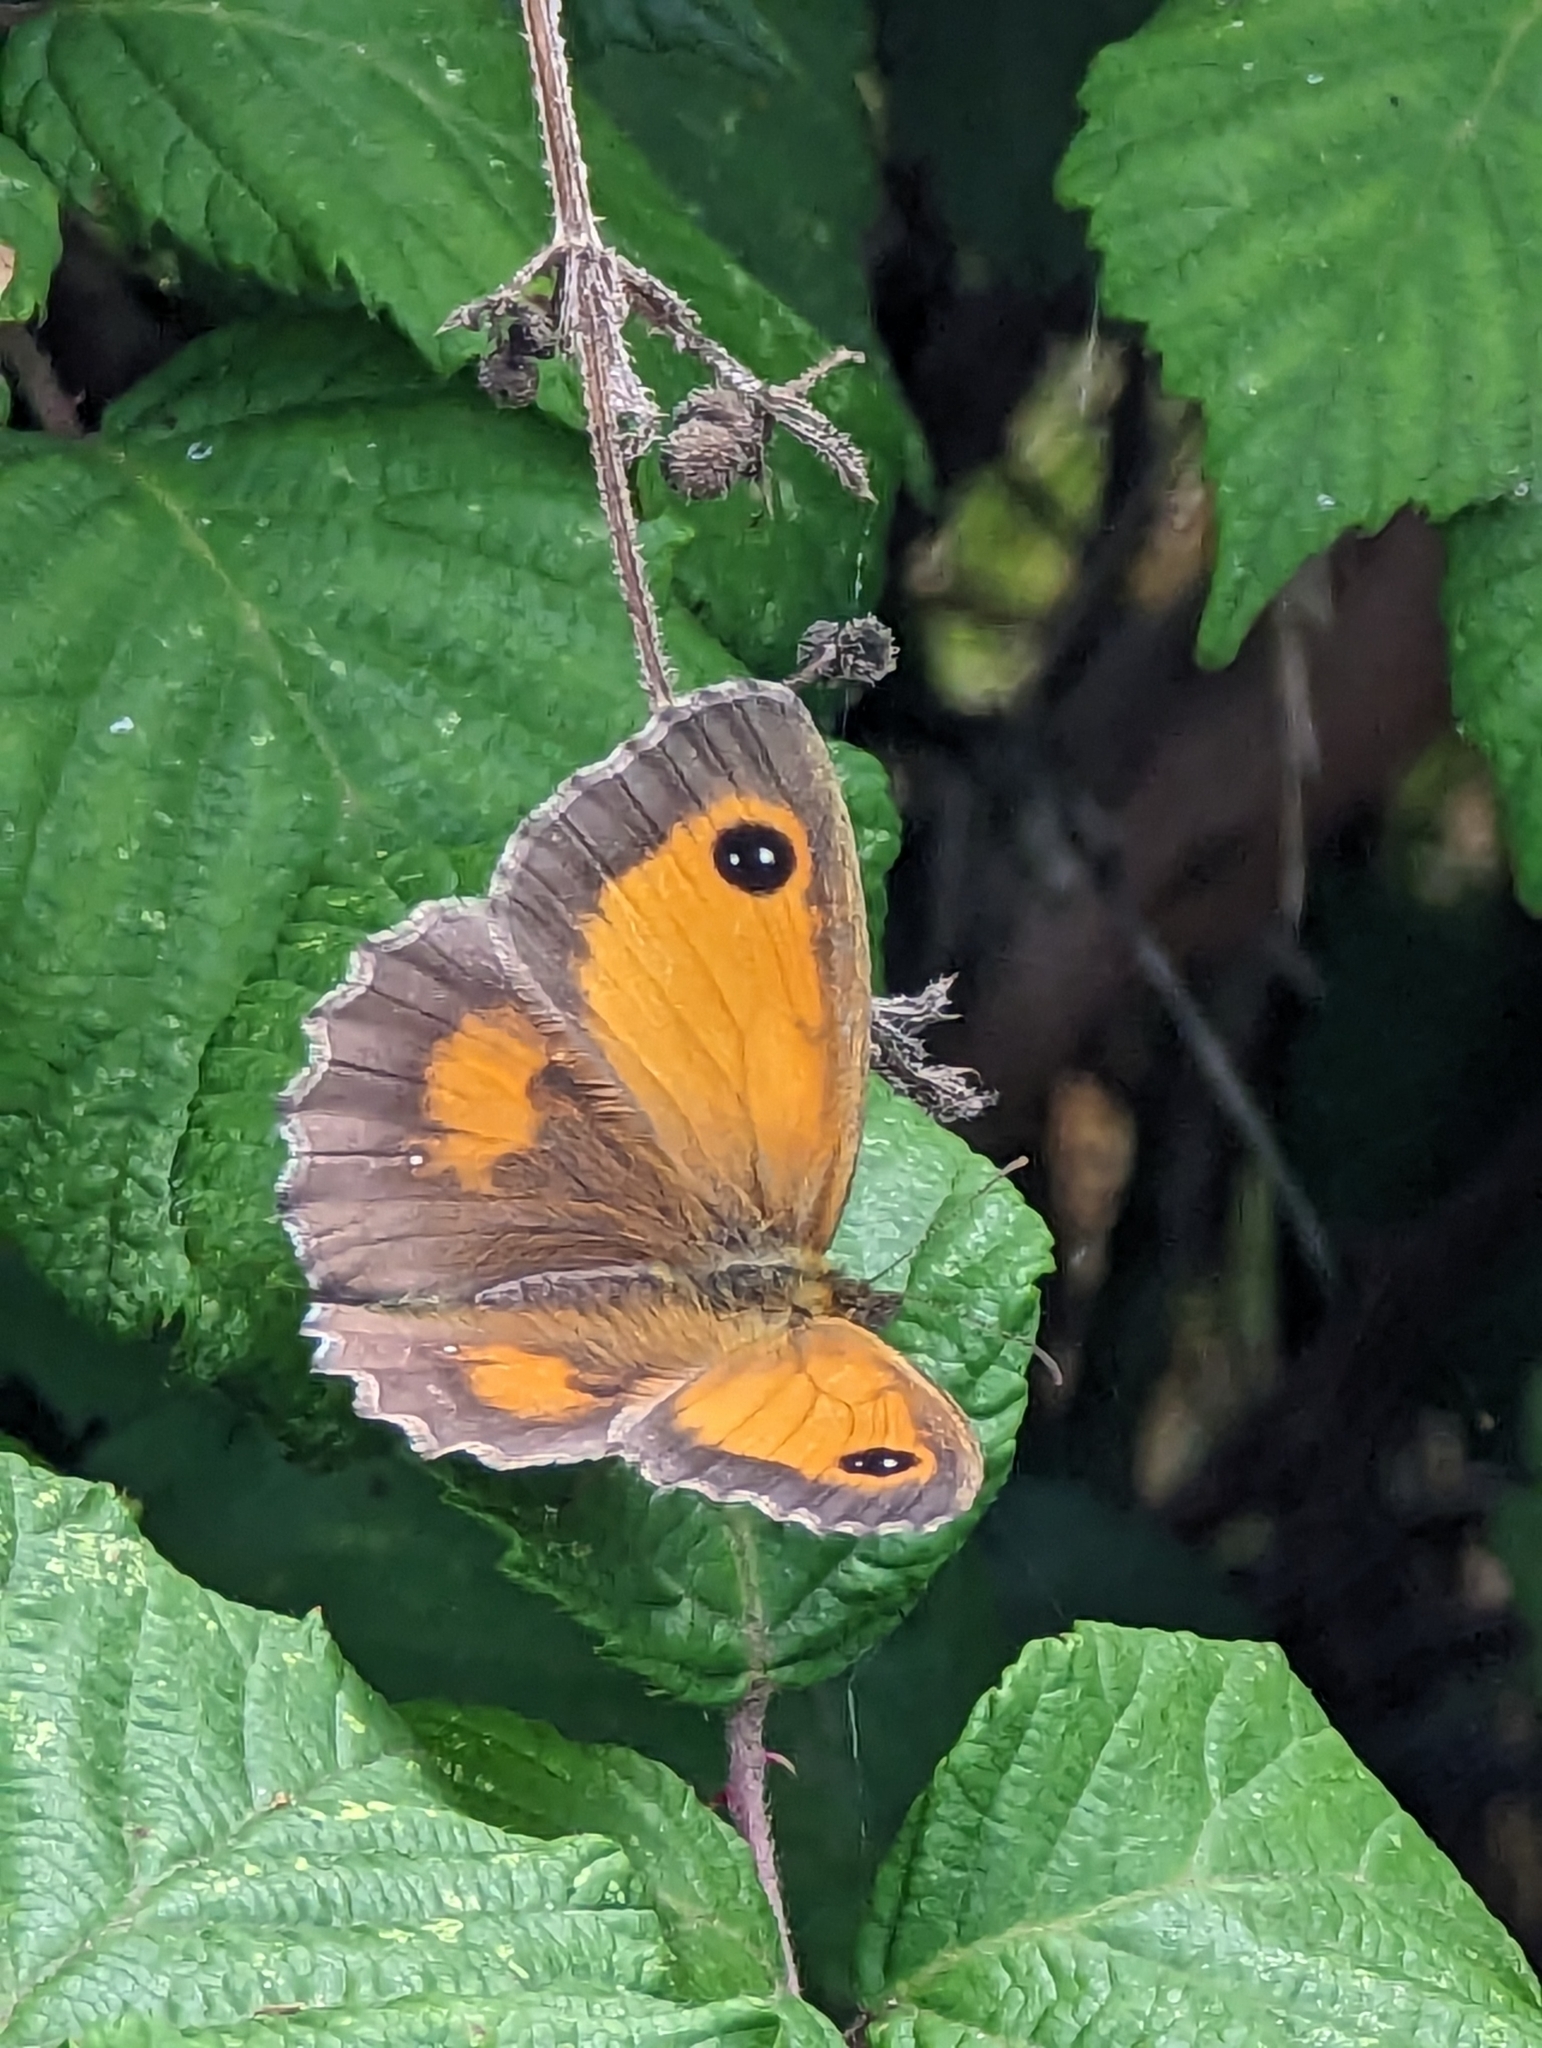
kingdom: Animalia
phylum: Arthropoda
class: Insecta
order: Lepidoptera
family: Nymphalidae
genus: Pyronia
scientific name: Pyronia tithonus
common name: Gatekeeper
